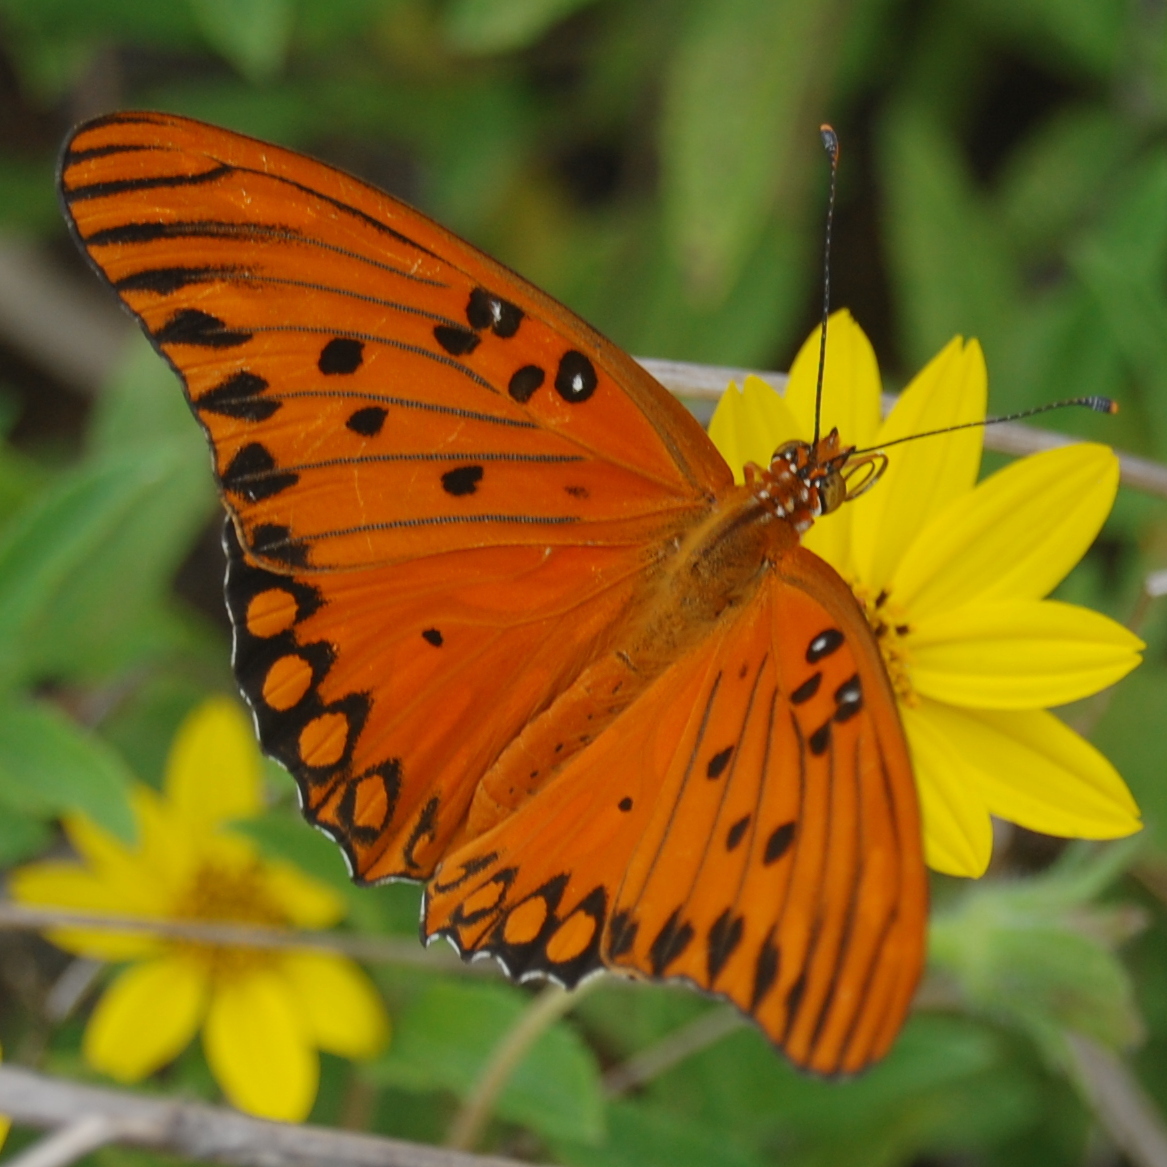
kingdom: Animalia
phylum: Arthropoda
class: Insecta
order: Lepidoptera
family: Nymphalidae
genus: Dione
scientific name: Dione vanillae
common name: Gulf fritillary
